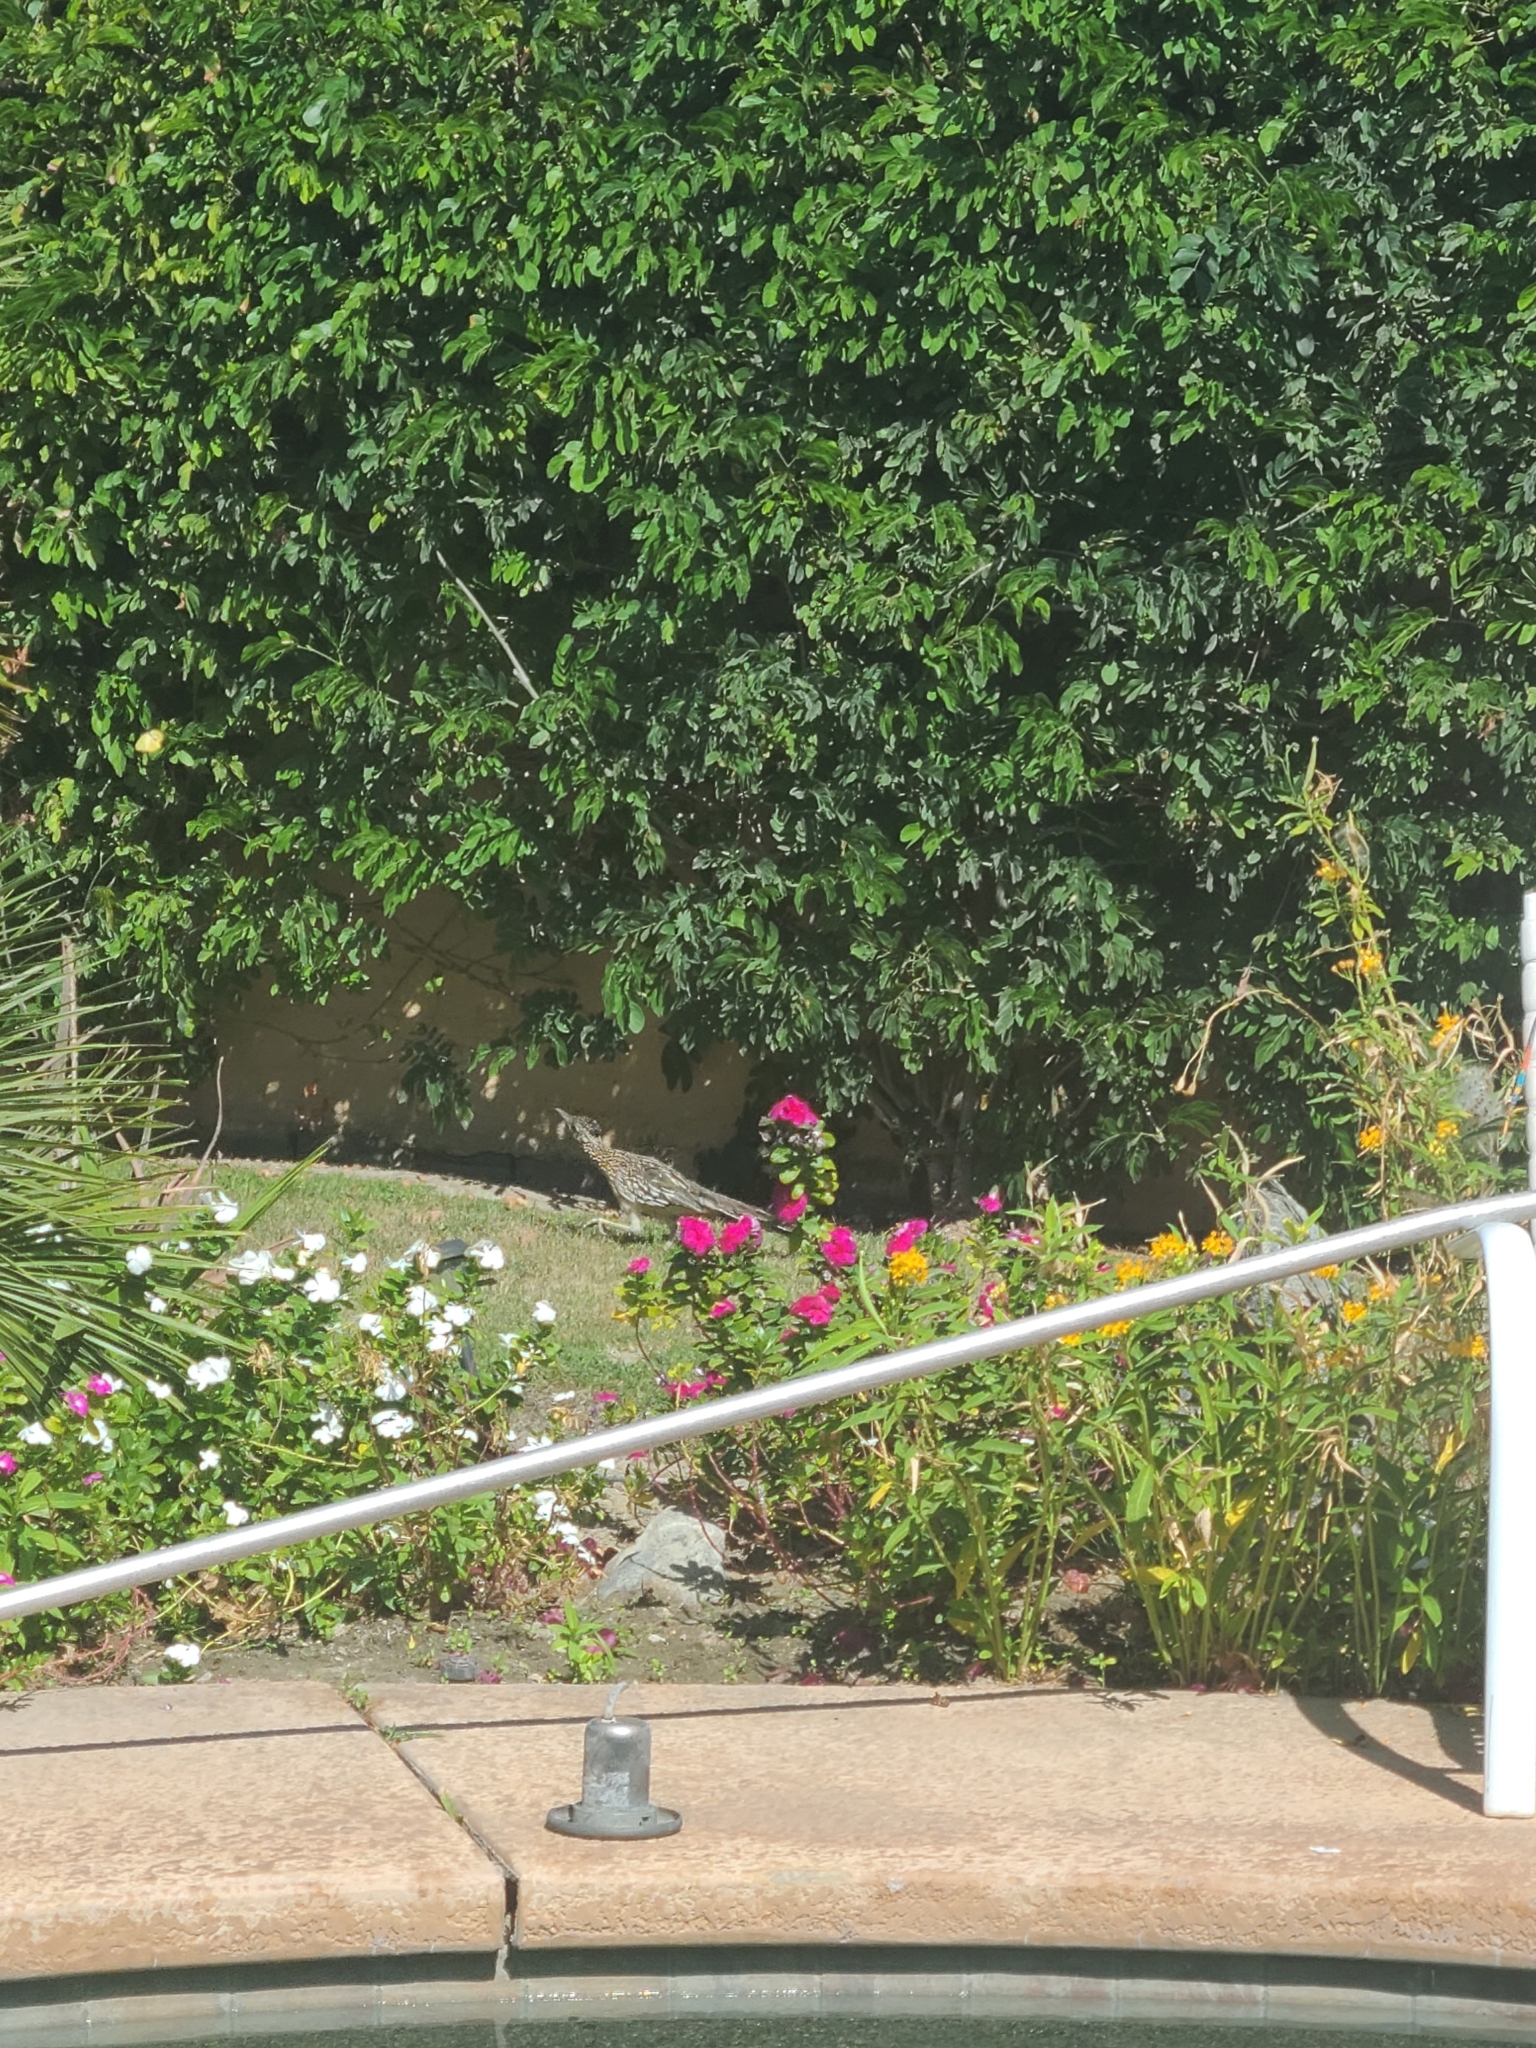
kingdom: Animalia
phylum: Chordata
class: Aves
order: Cuculiformes
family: Cuculidae
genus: Geococcyx
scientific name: Geococcyx californianus
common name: Greater roadrunner
